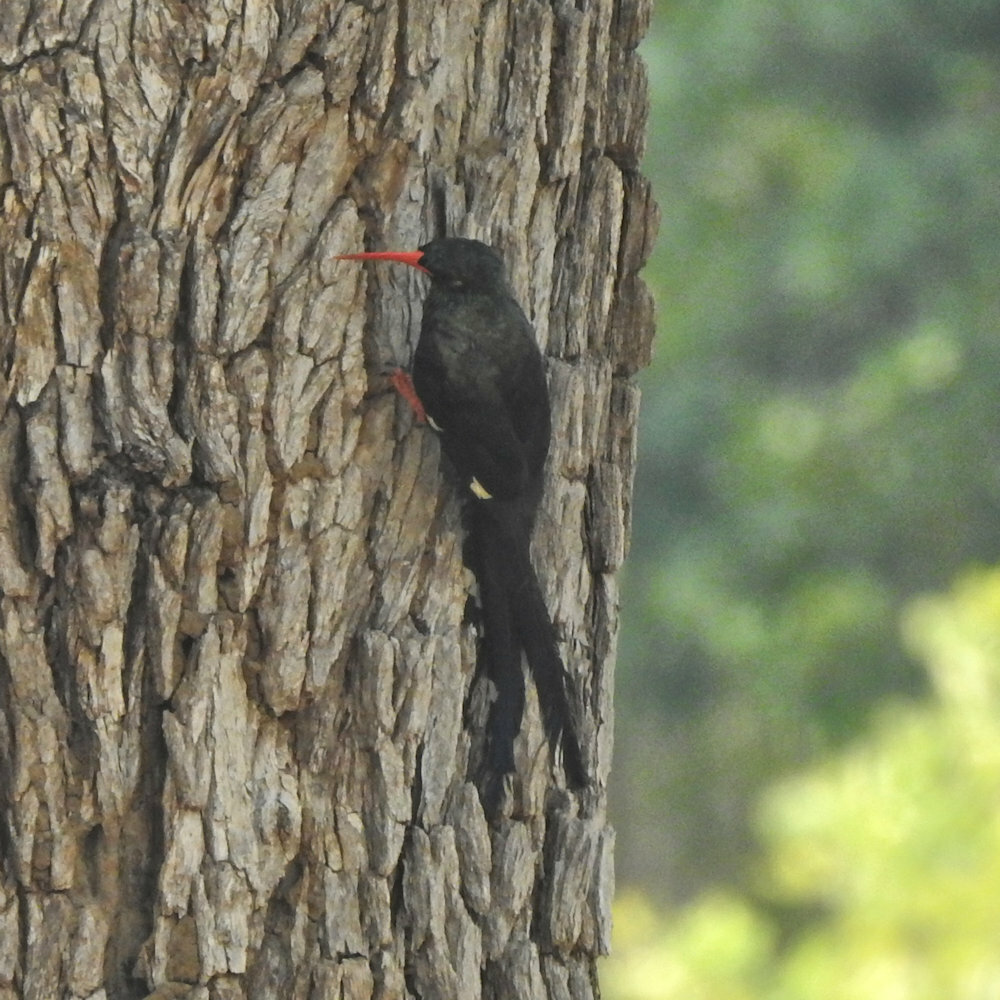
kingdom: Animalia
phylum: Chordata
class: Aves
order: Bucerotiformes
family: Phoeniculidae
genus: Phoeniculus
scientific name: Phoeniculus purpureus
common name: Green woodhoopoe
